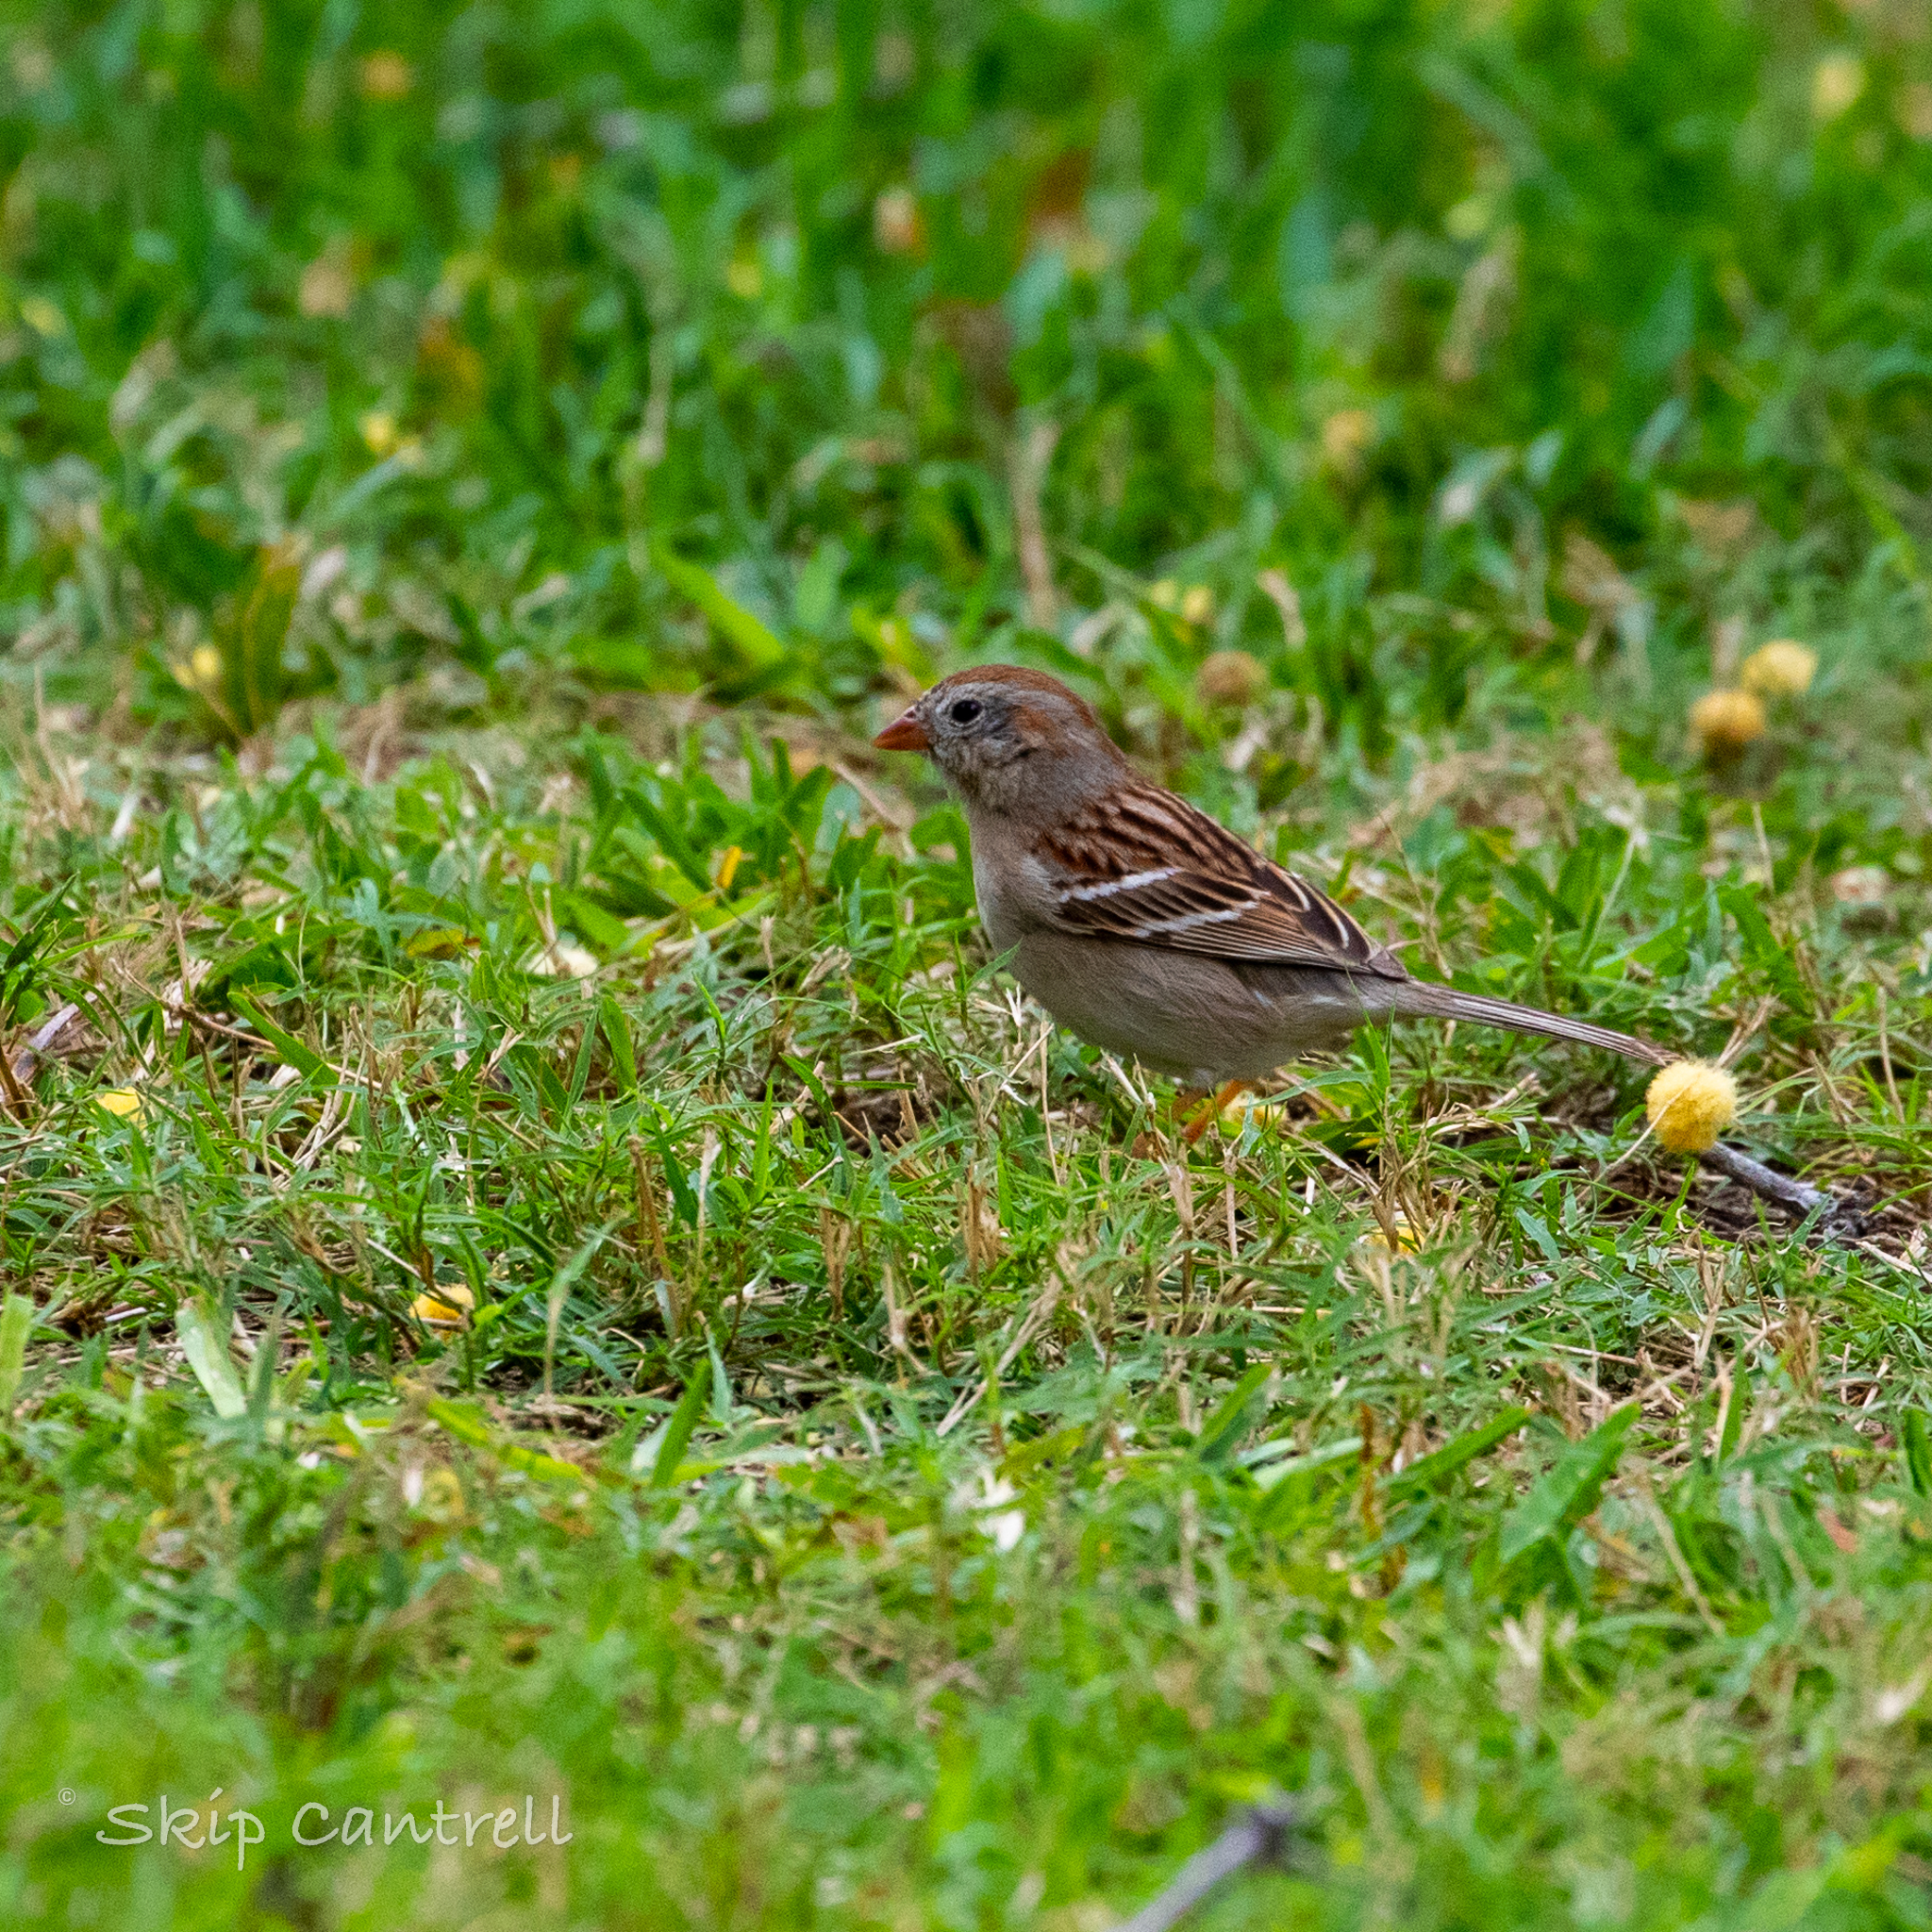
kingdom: Animalia
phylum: Chordata
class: Aves
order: Passeriformes
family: Passerellidae
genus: Spizella
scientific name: Spizella pusilla
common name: Field sparrow
